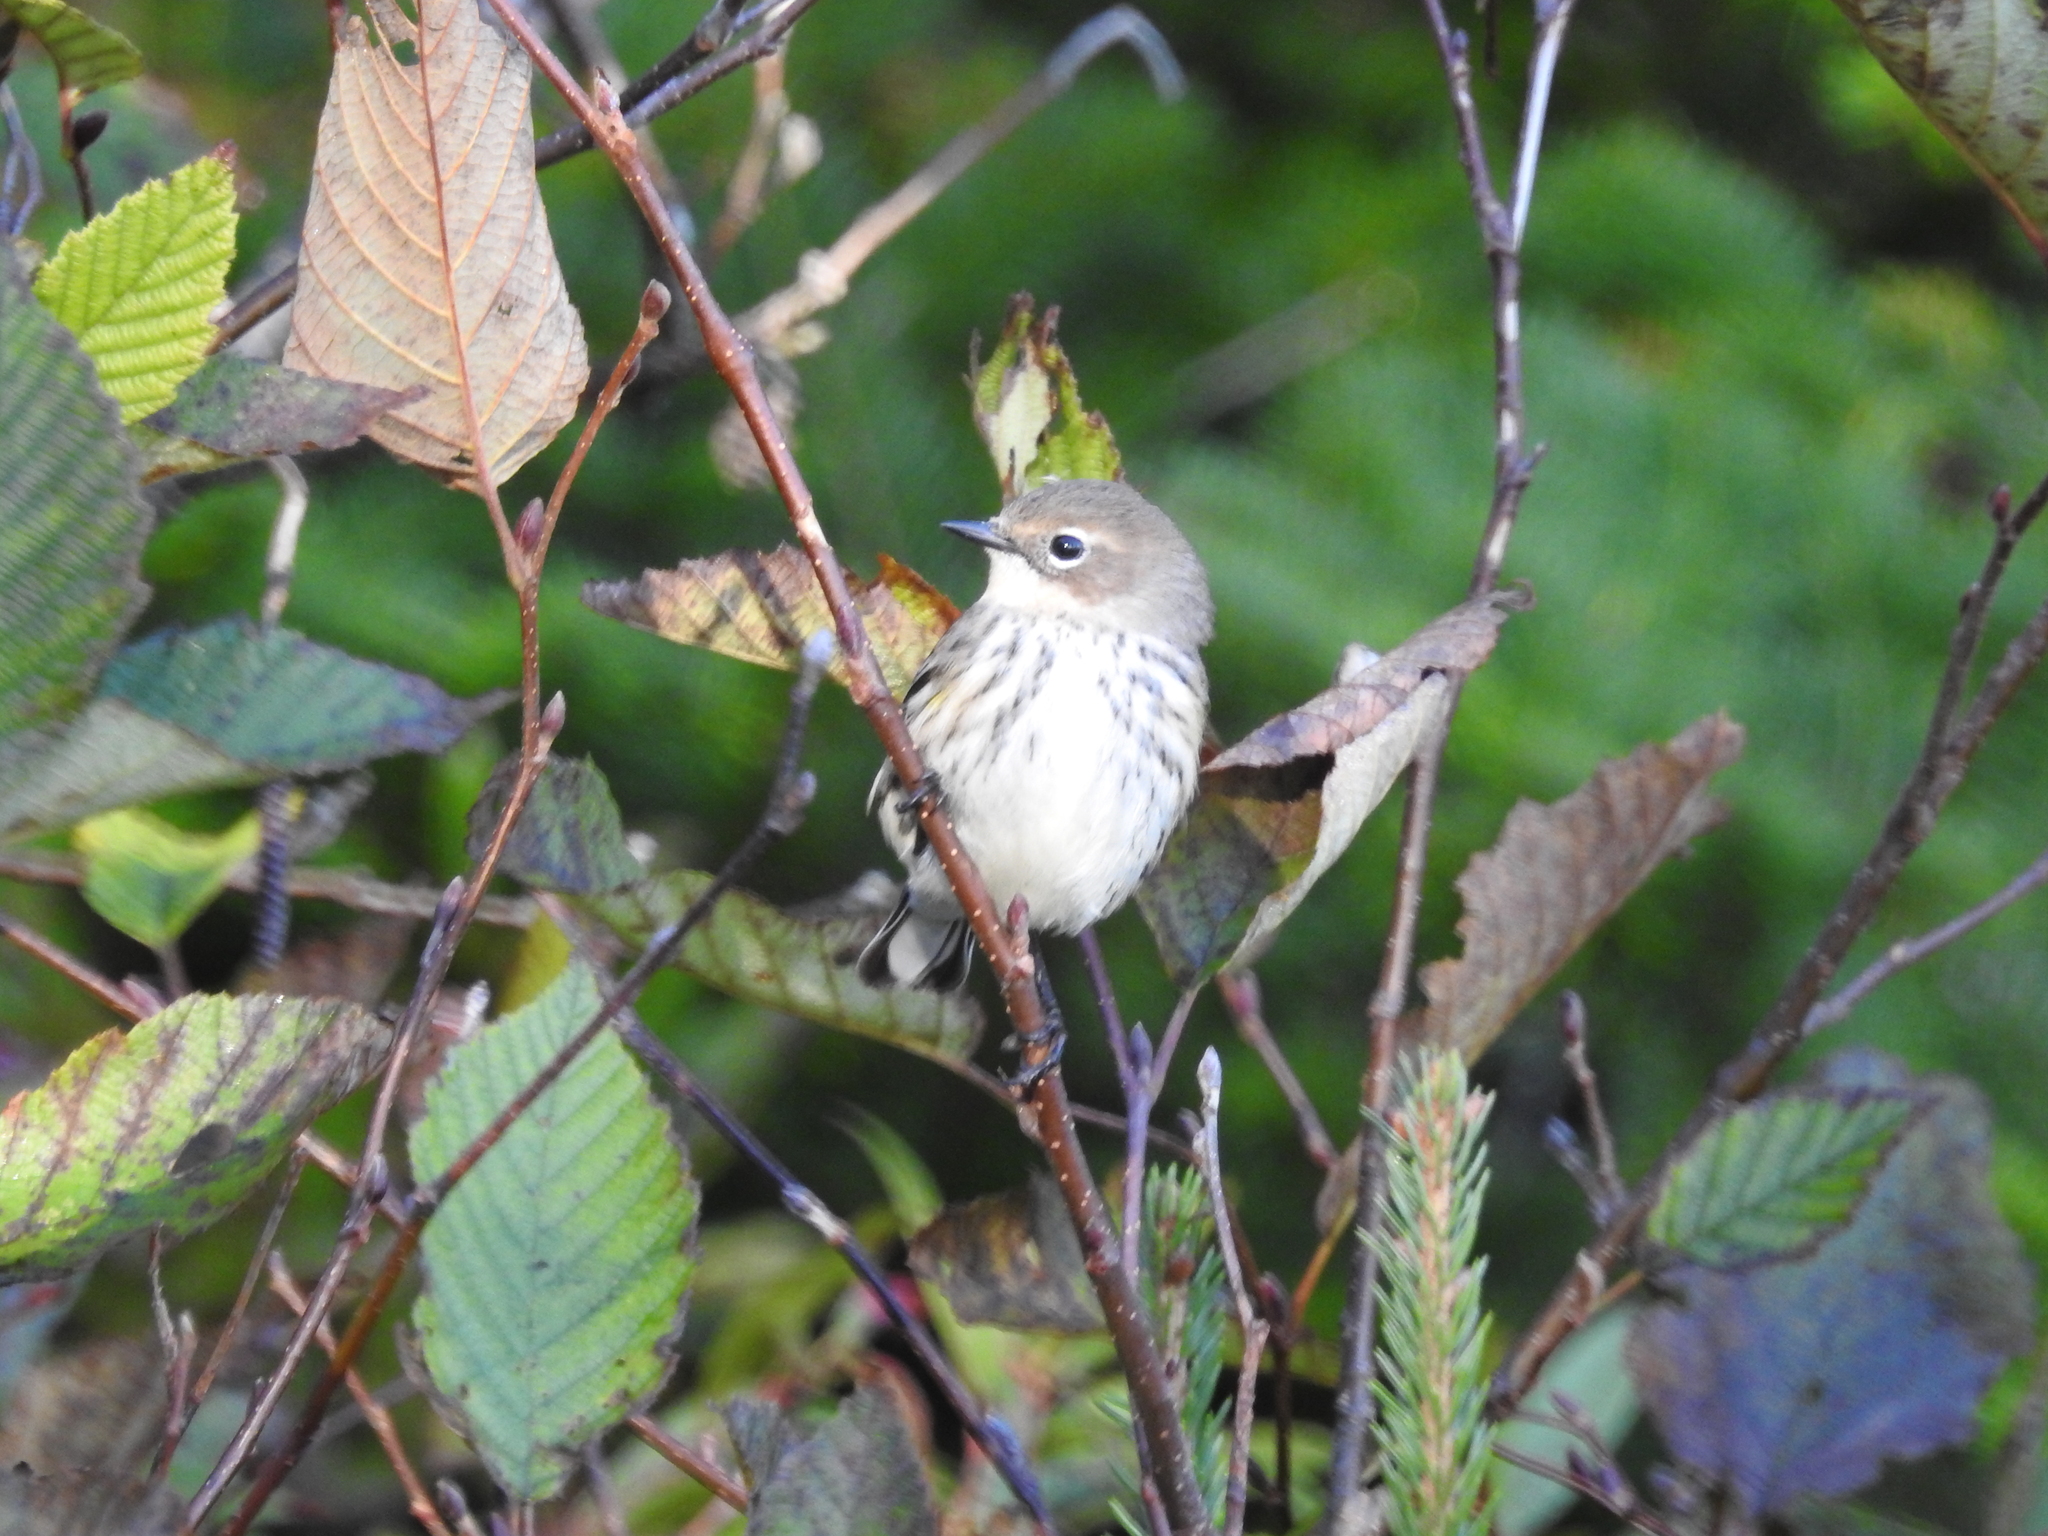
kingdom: Animalia
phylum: Chordata
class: Aves
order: Passeriformes
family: Parulidae
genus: Setophaga
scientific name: Setophaga coronata
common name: Myrtle warbler
